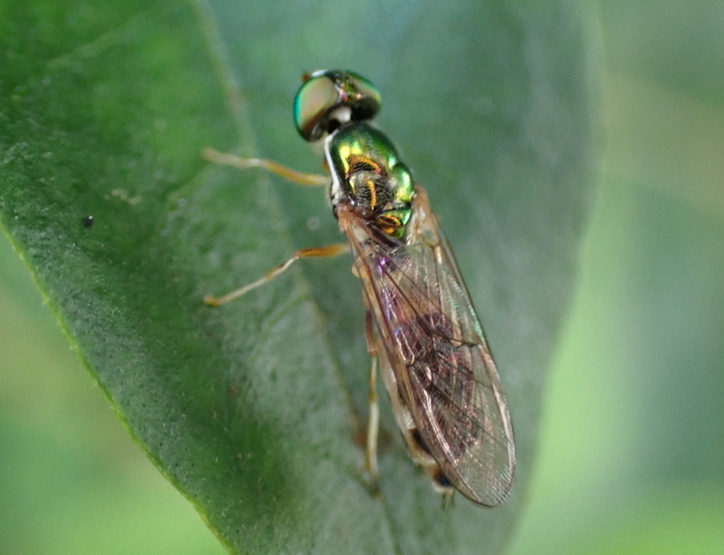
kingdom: Animalia
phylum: Arthropoda
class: Insecta
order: Diptera
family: Stratiomyidae
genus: Sargus
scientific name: Sargus fasciatus
